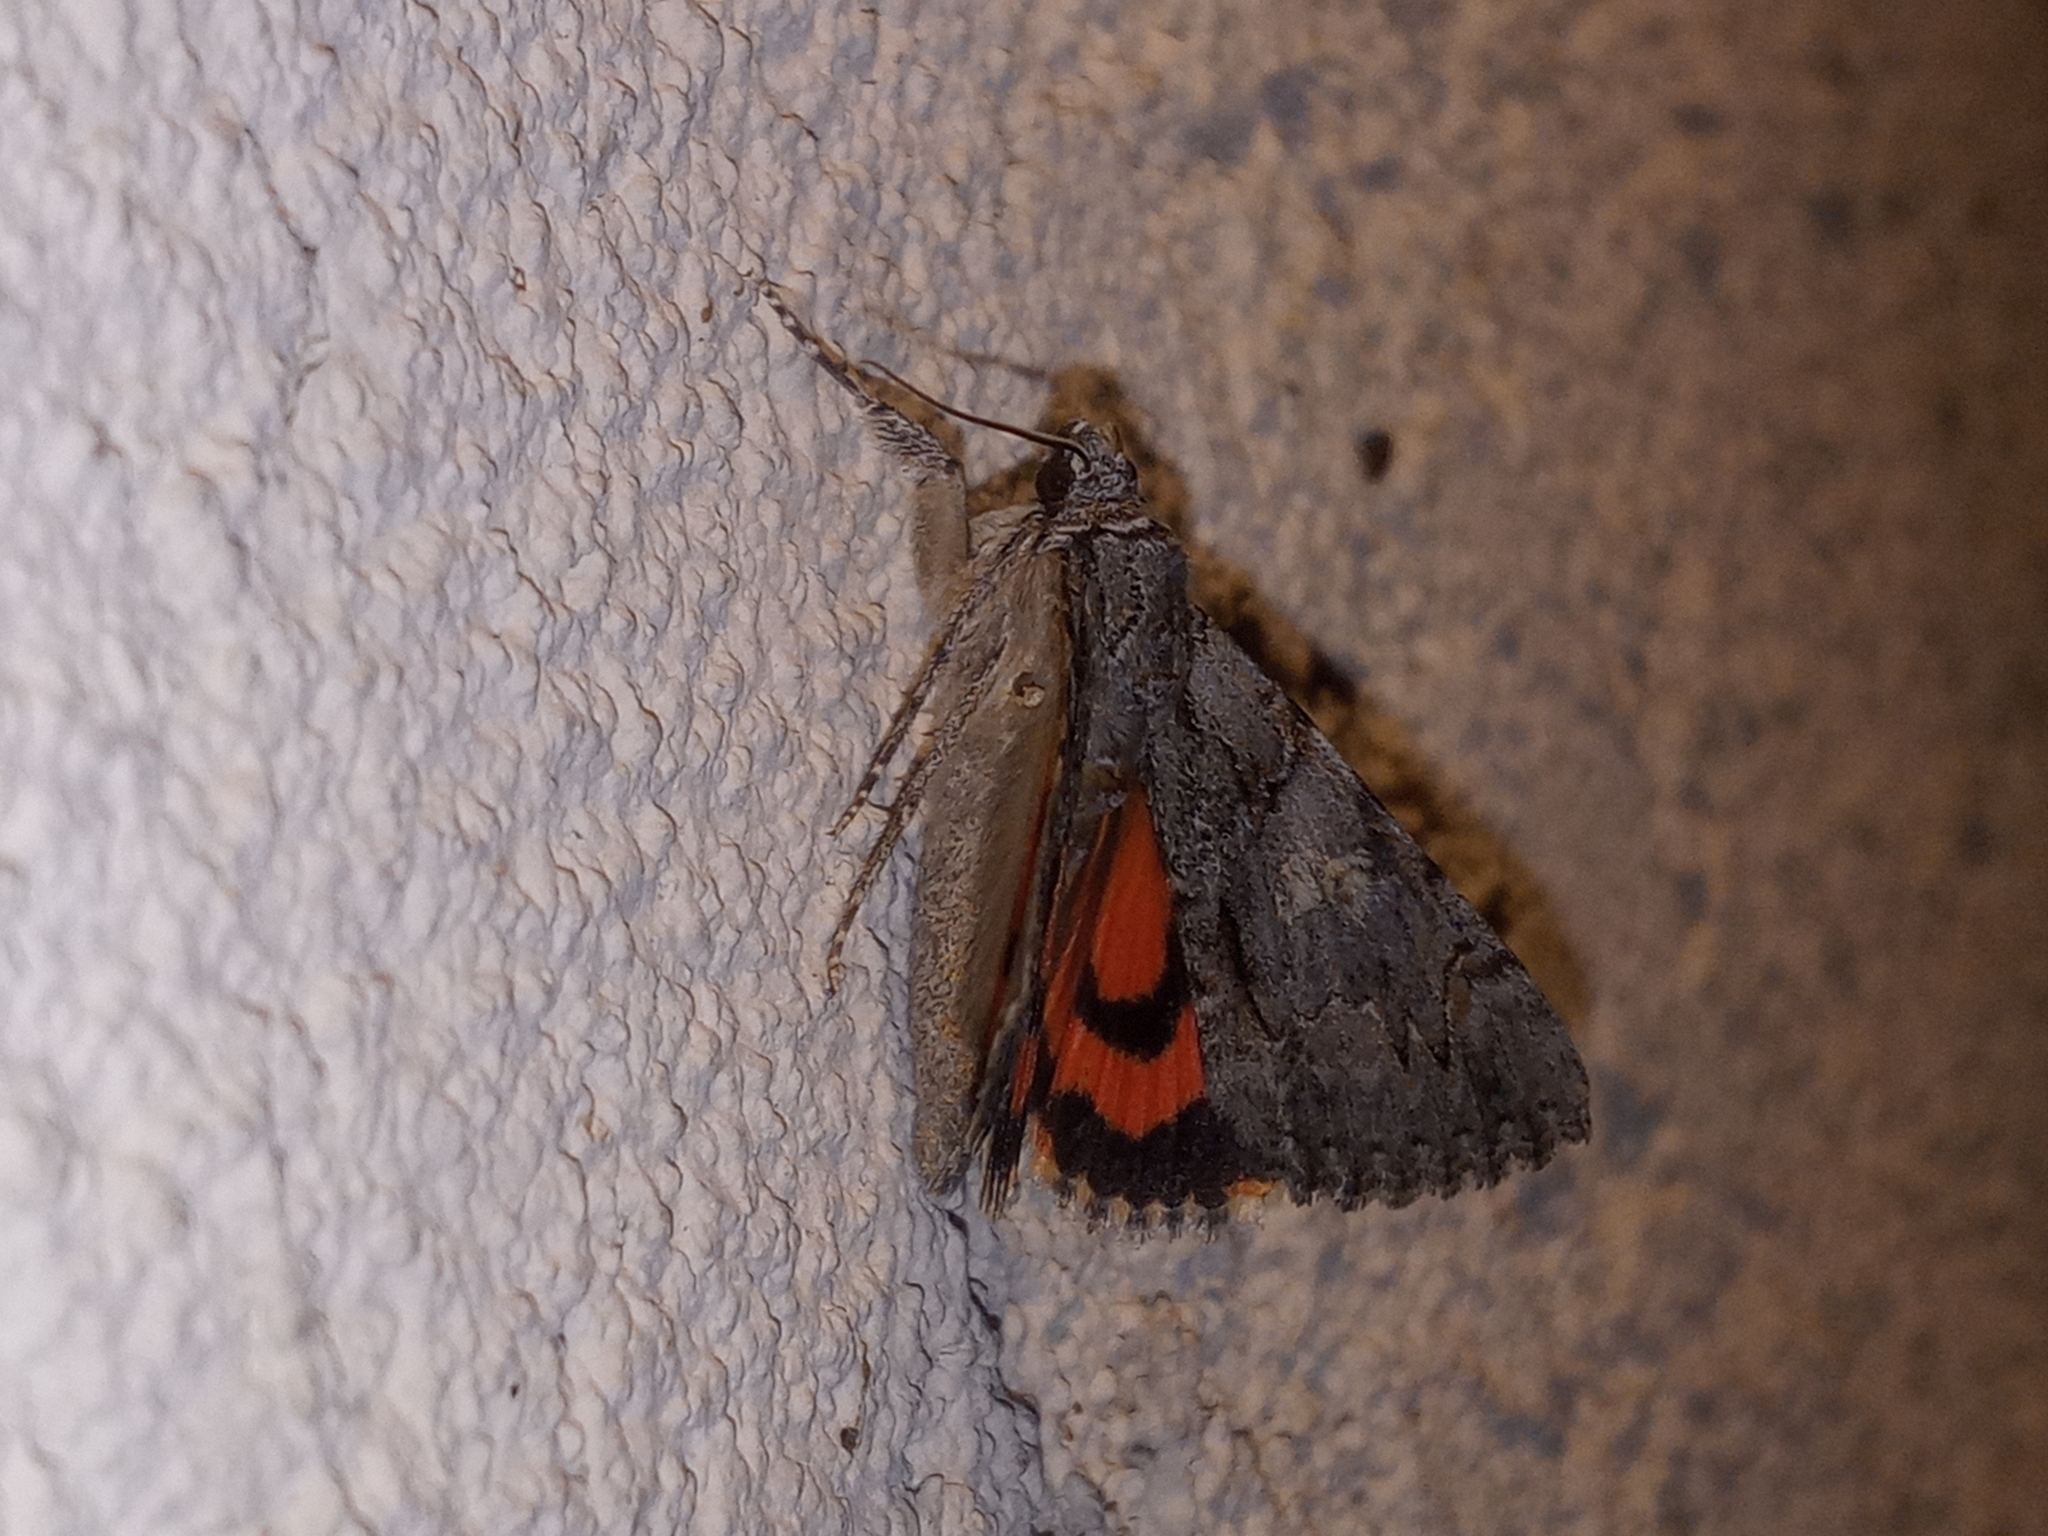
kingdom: Animalia
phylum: Arthropoda
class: Insecta
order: Lepidoptera
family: Erebidae
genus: Catocala
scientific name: Catocala verrilliana
